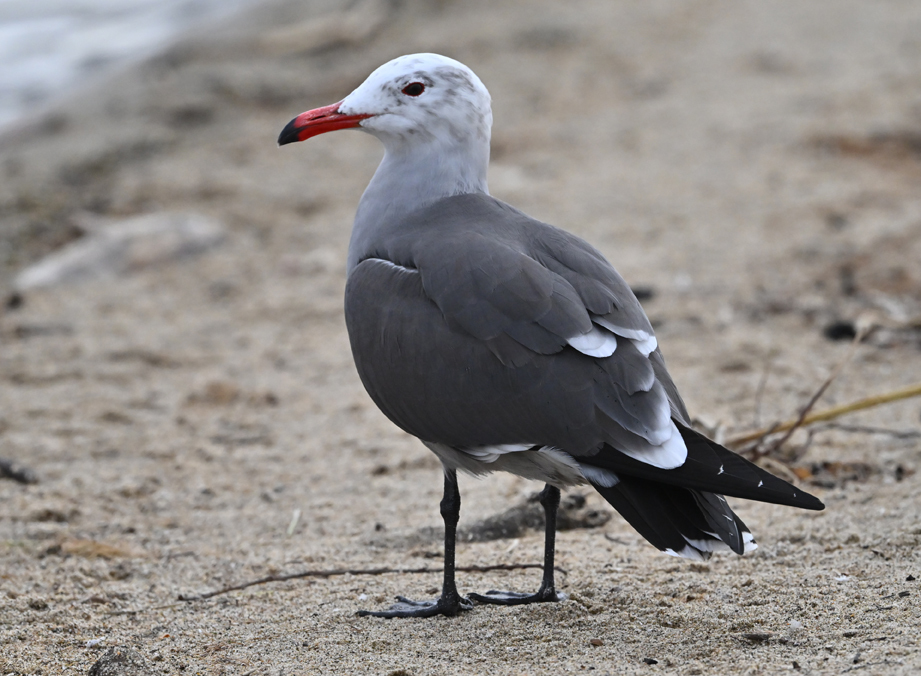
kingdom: Animalia
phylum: Chordata
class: Aves
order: Charadriiformes
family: Laridae
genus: Larus
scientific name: Larus heermanni
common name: Heermann's gull
